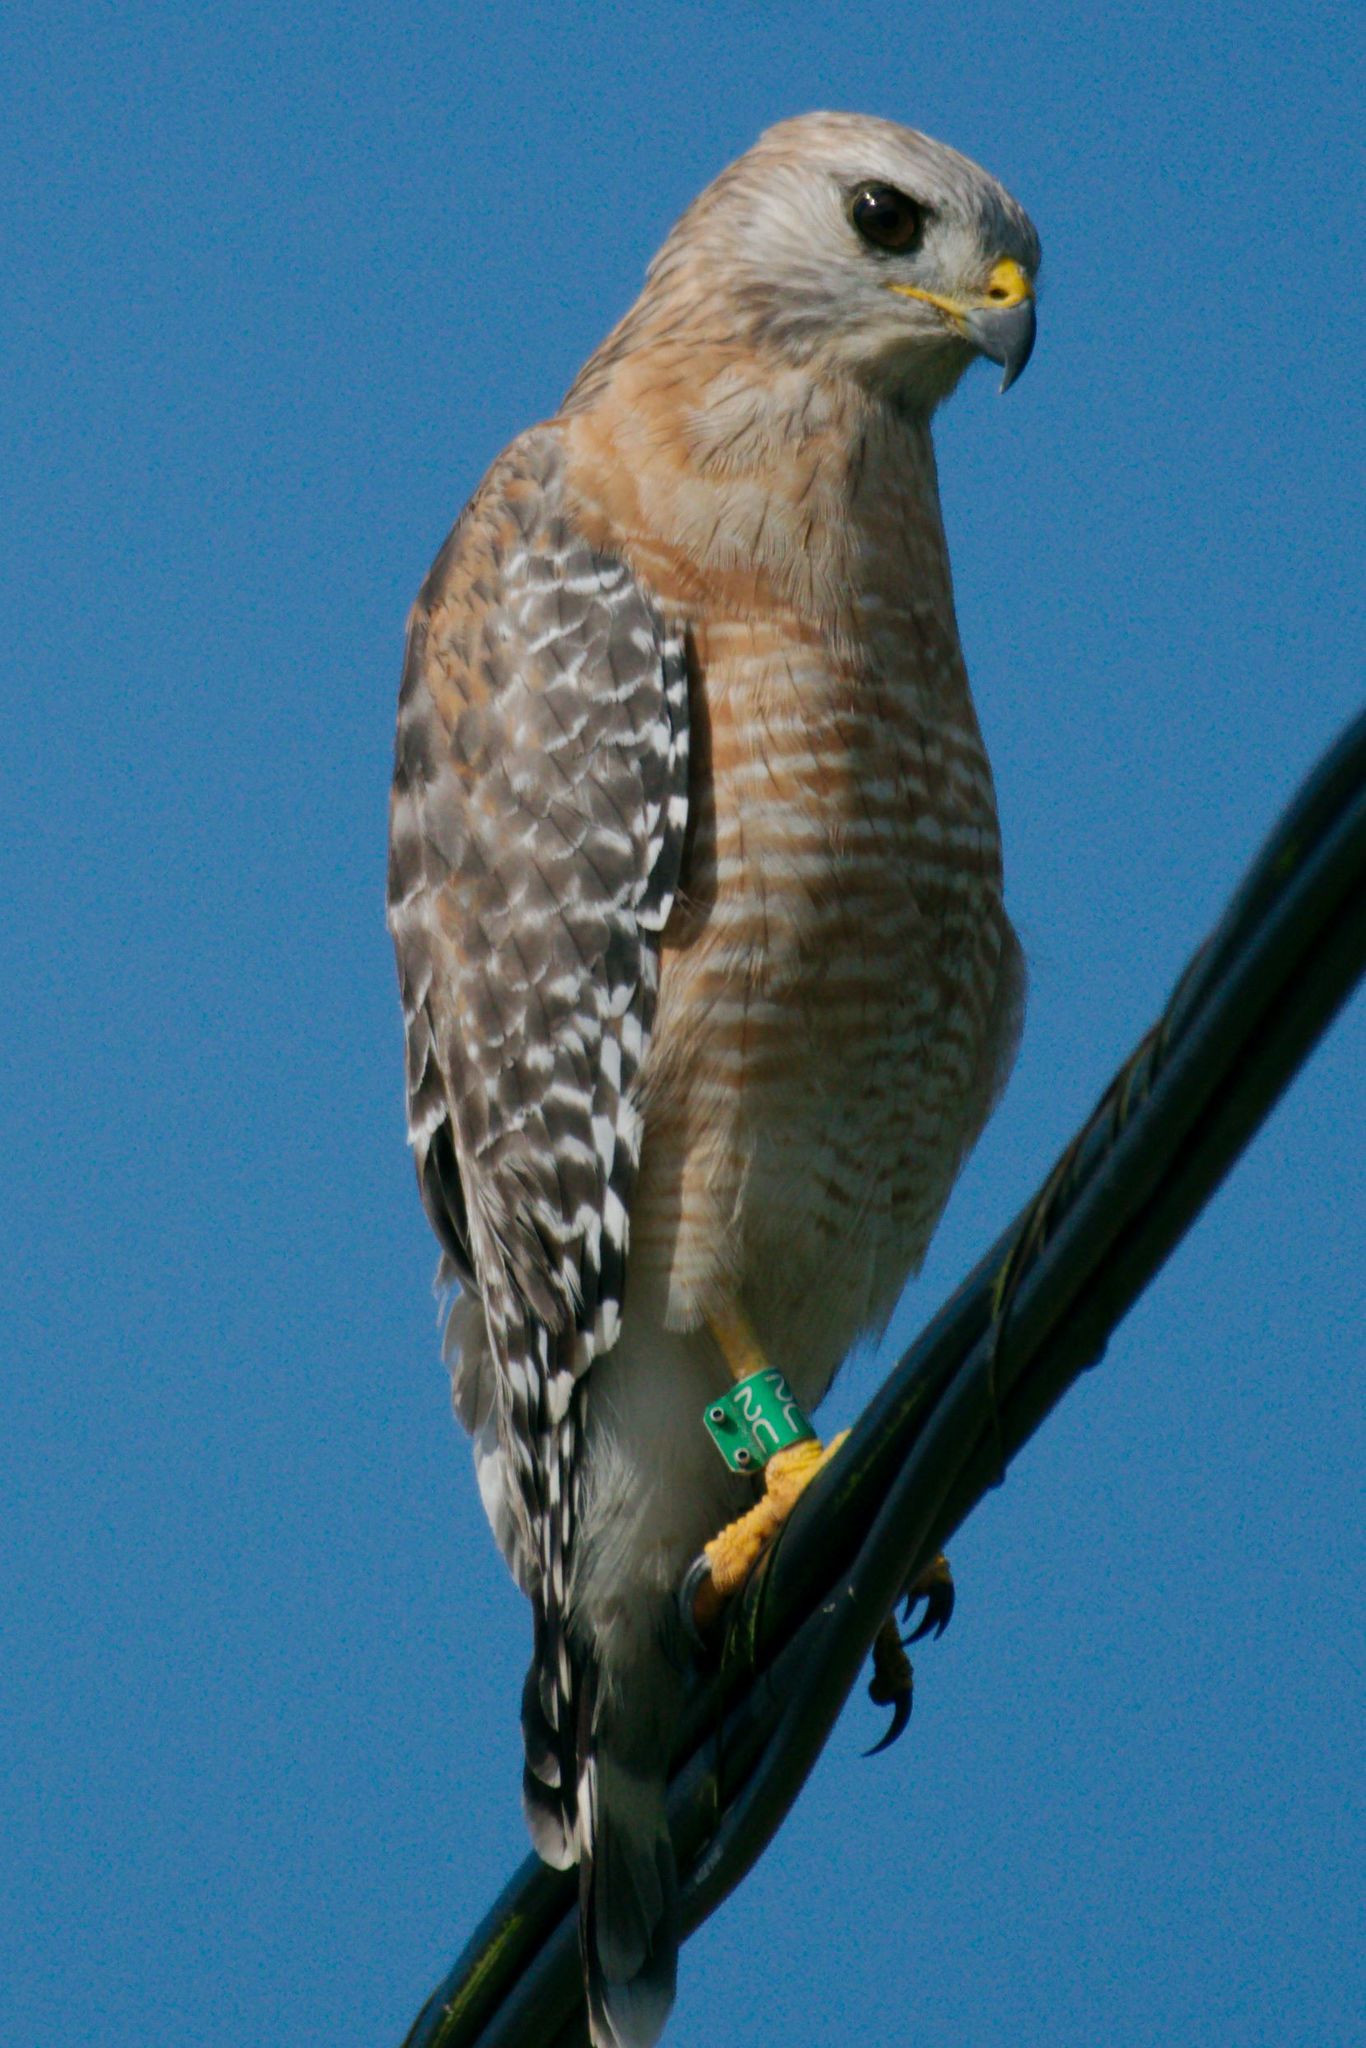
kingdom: Animalia
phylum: Chordata
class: Aves
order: Accipitriformes
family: Accipitridae
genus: Buteo
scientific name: Buteo lineatus
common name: Red-shouldered hawk
